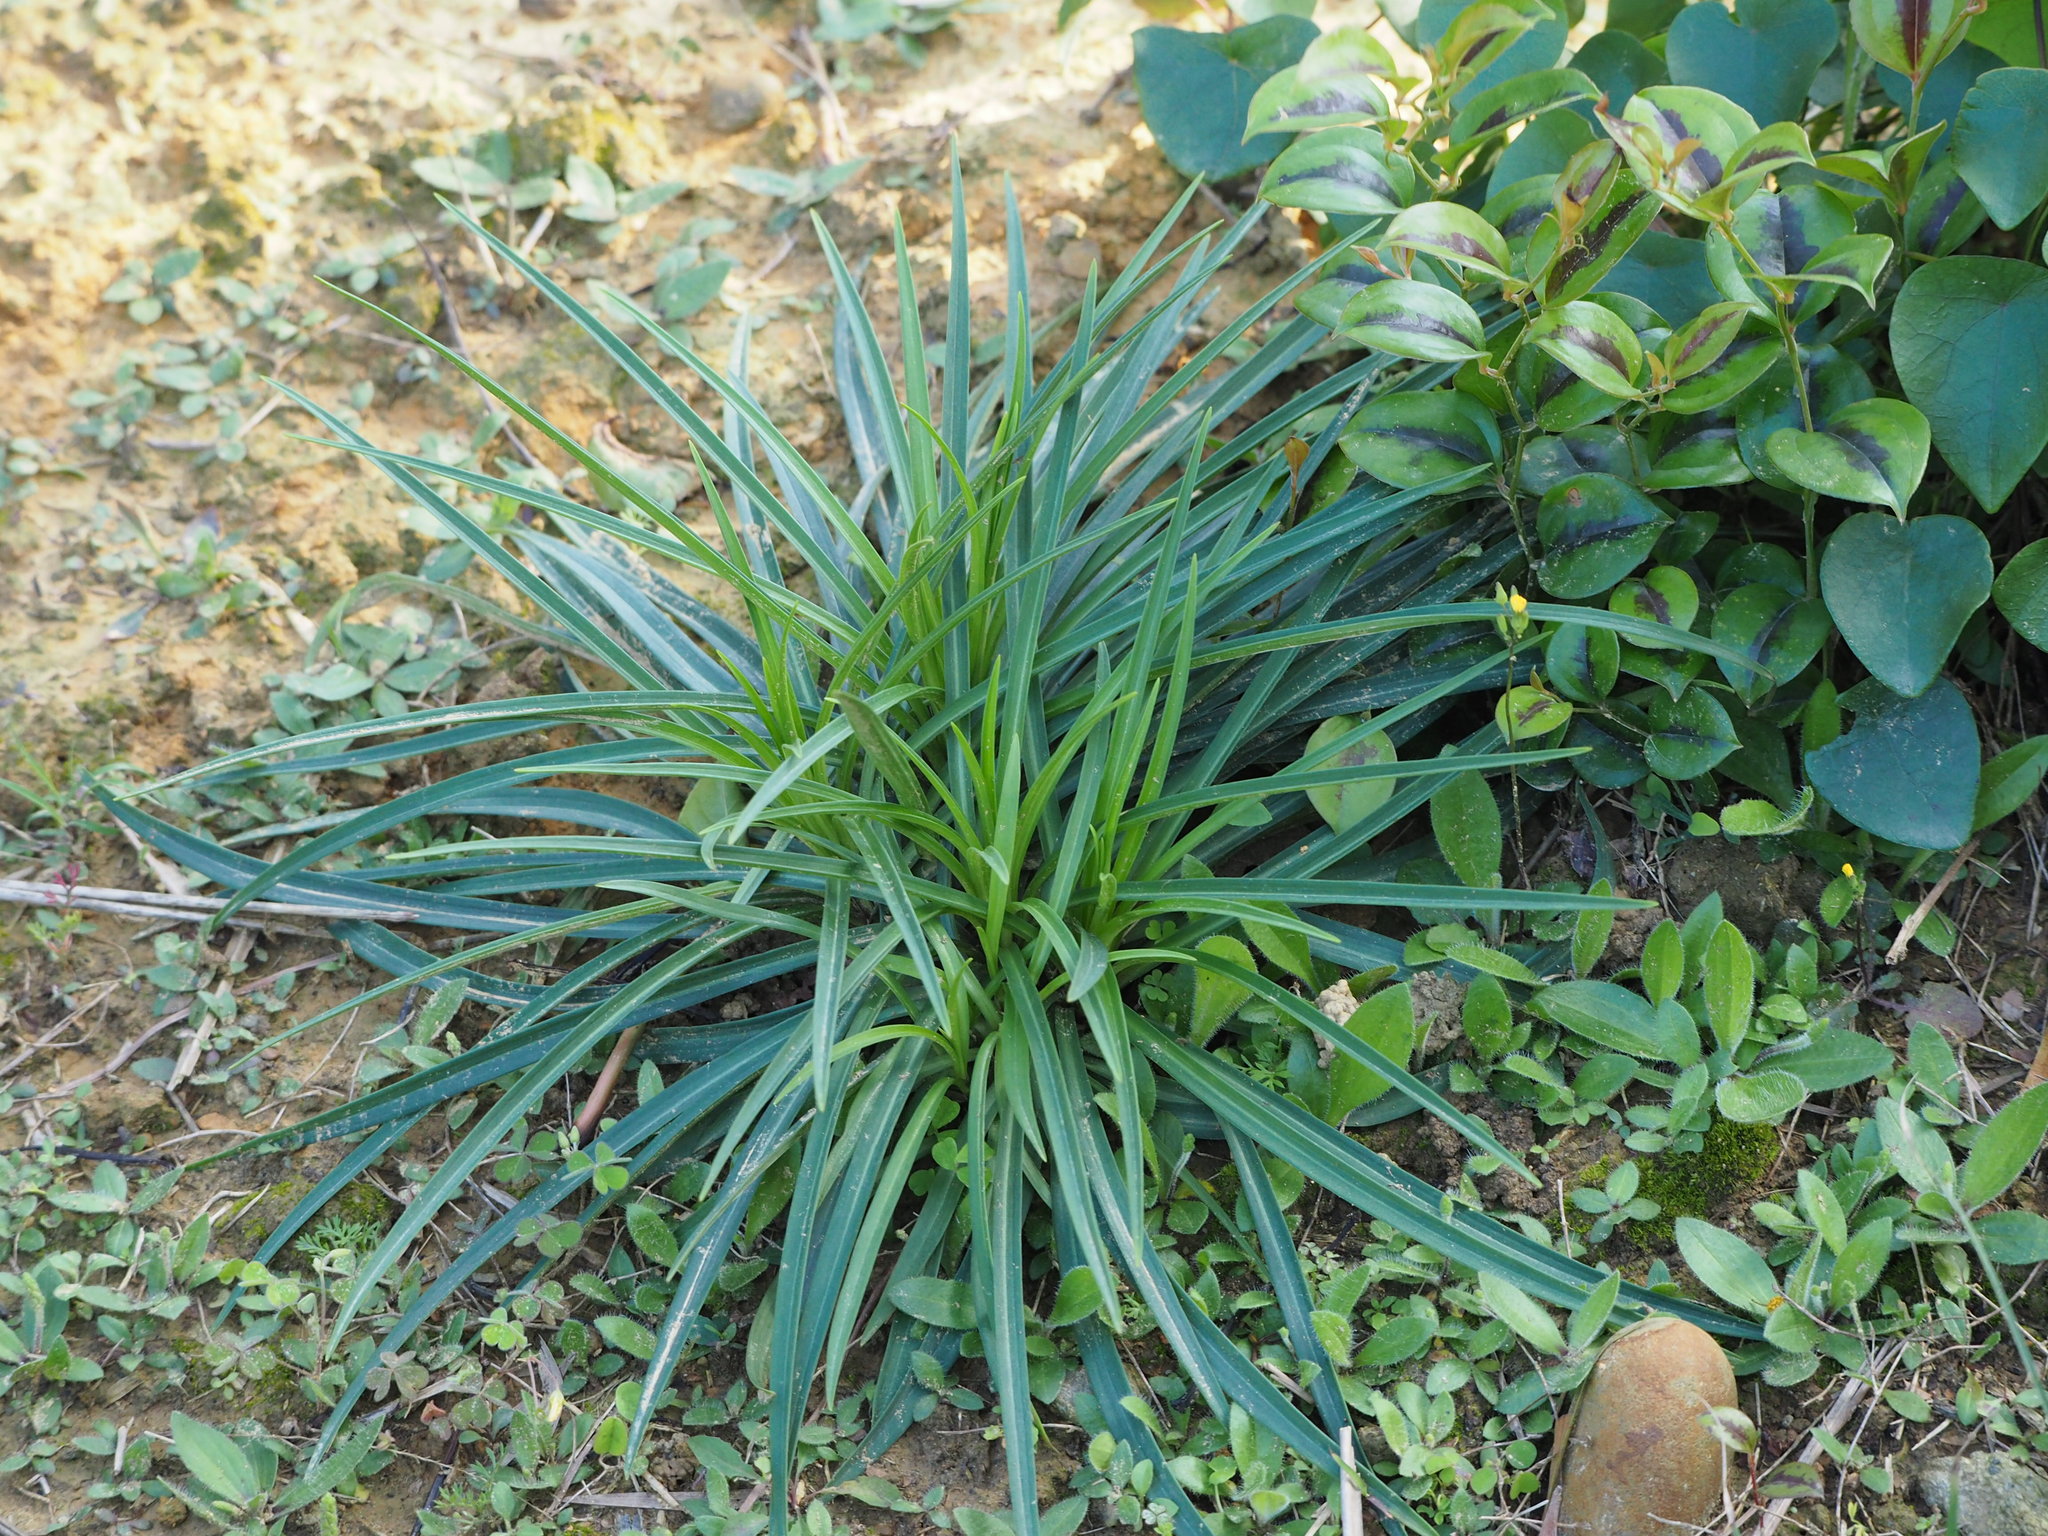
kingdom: Plantae
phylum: Tracheophyta
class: Liliopsida
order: Liliales
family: Liliaceae
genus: Lilium
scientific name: Lilium formosanum
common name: Formosa lily
